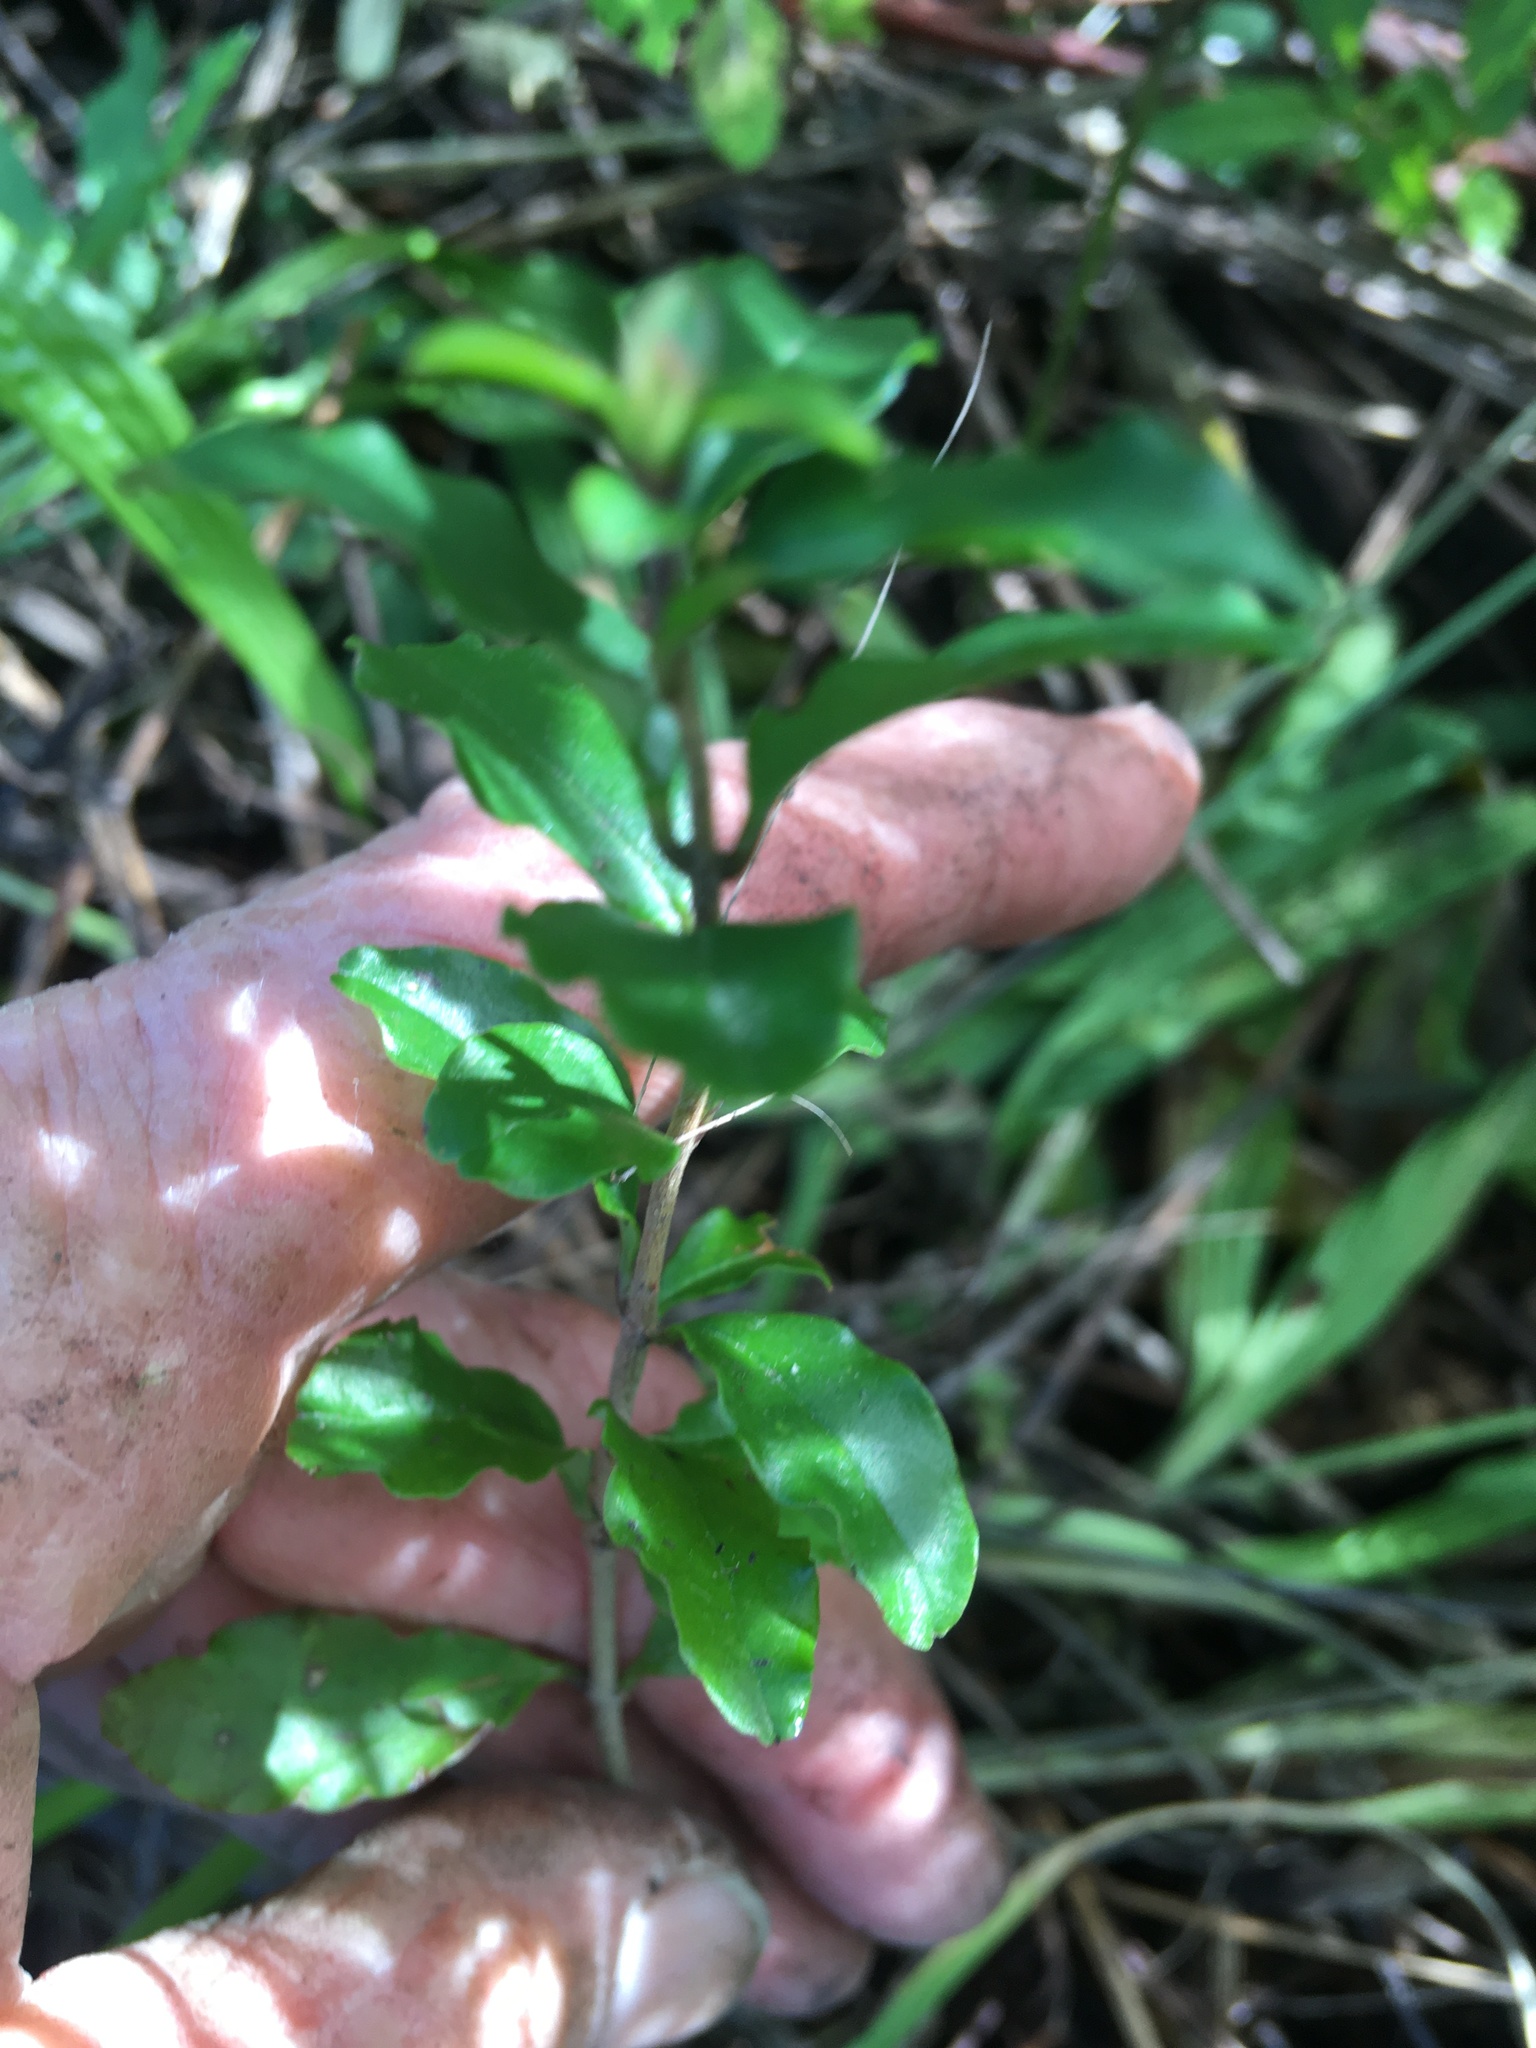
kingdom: Plantae
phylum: Tracheophyta
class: Magnoliopsida
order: Lamiales
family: Oleaceae
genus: Ligustrum
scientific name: Ligustrum sinense
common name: Chinese privet
